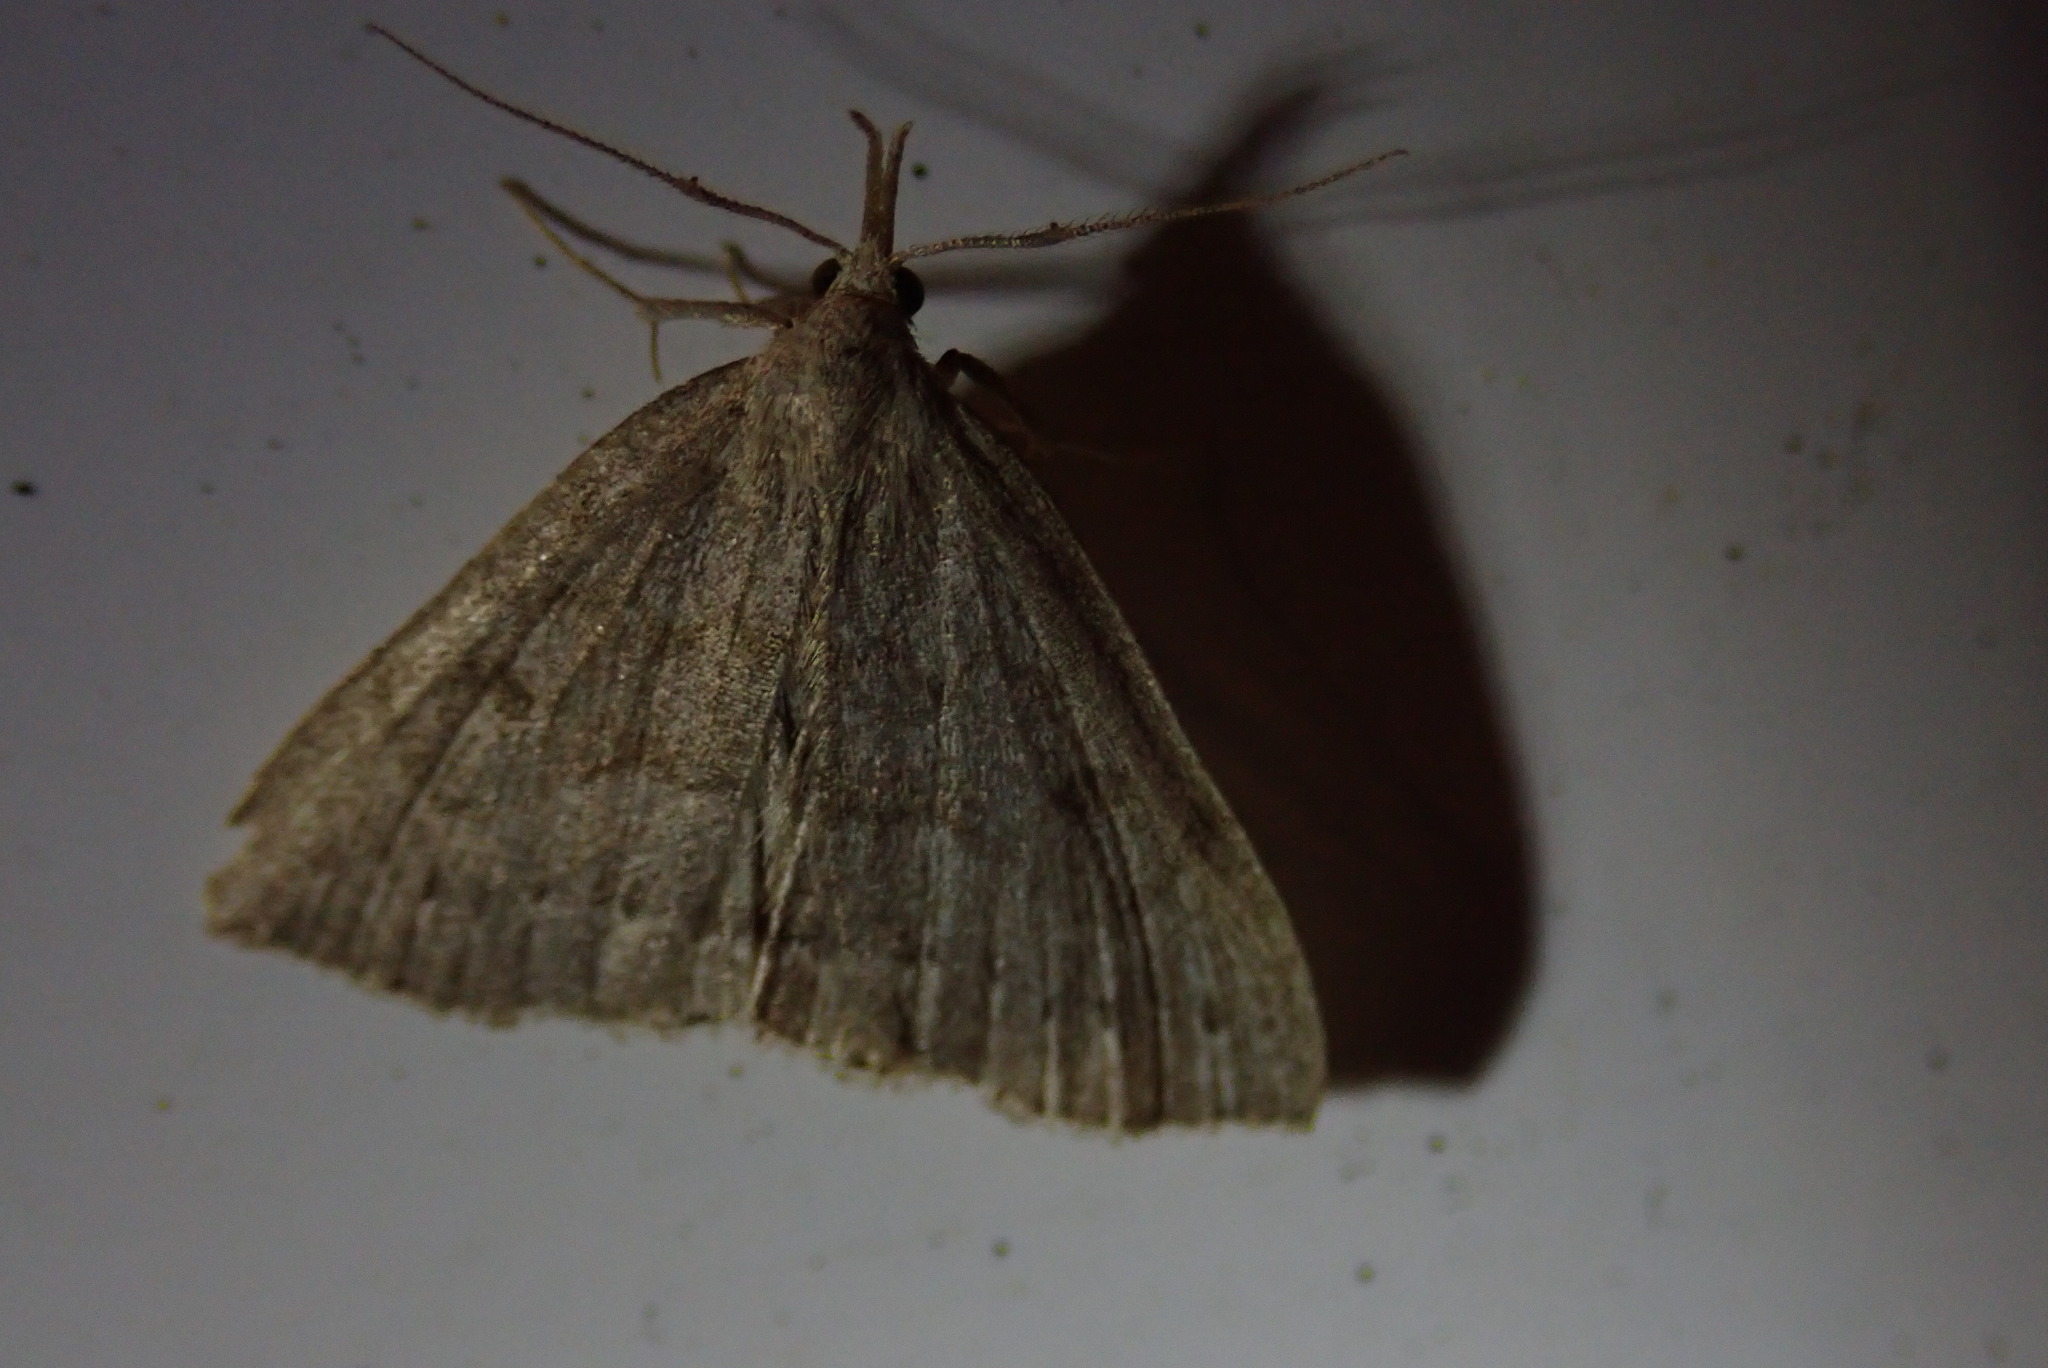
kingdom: Animalia
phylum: Arthropoda
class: Insecta
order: Lepidoptera
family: Erebidae
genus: Macrochilo
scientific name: Macrochilo morbidalis
